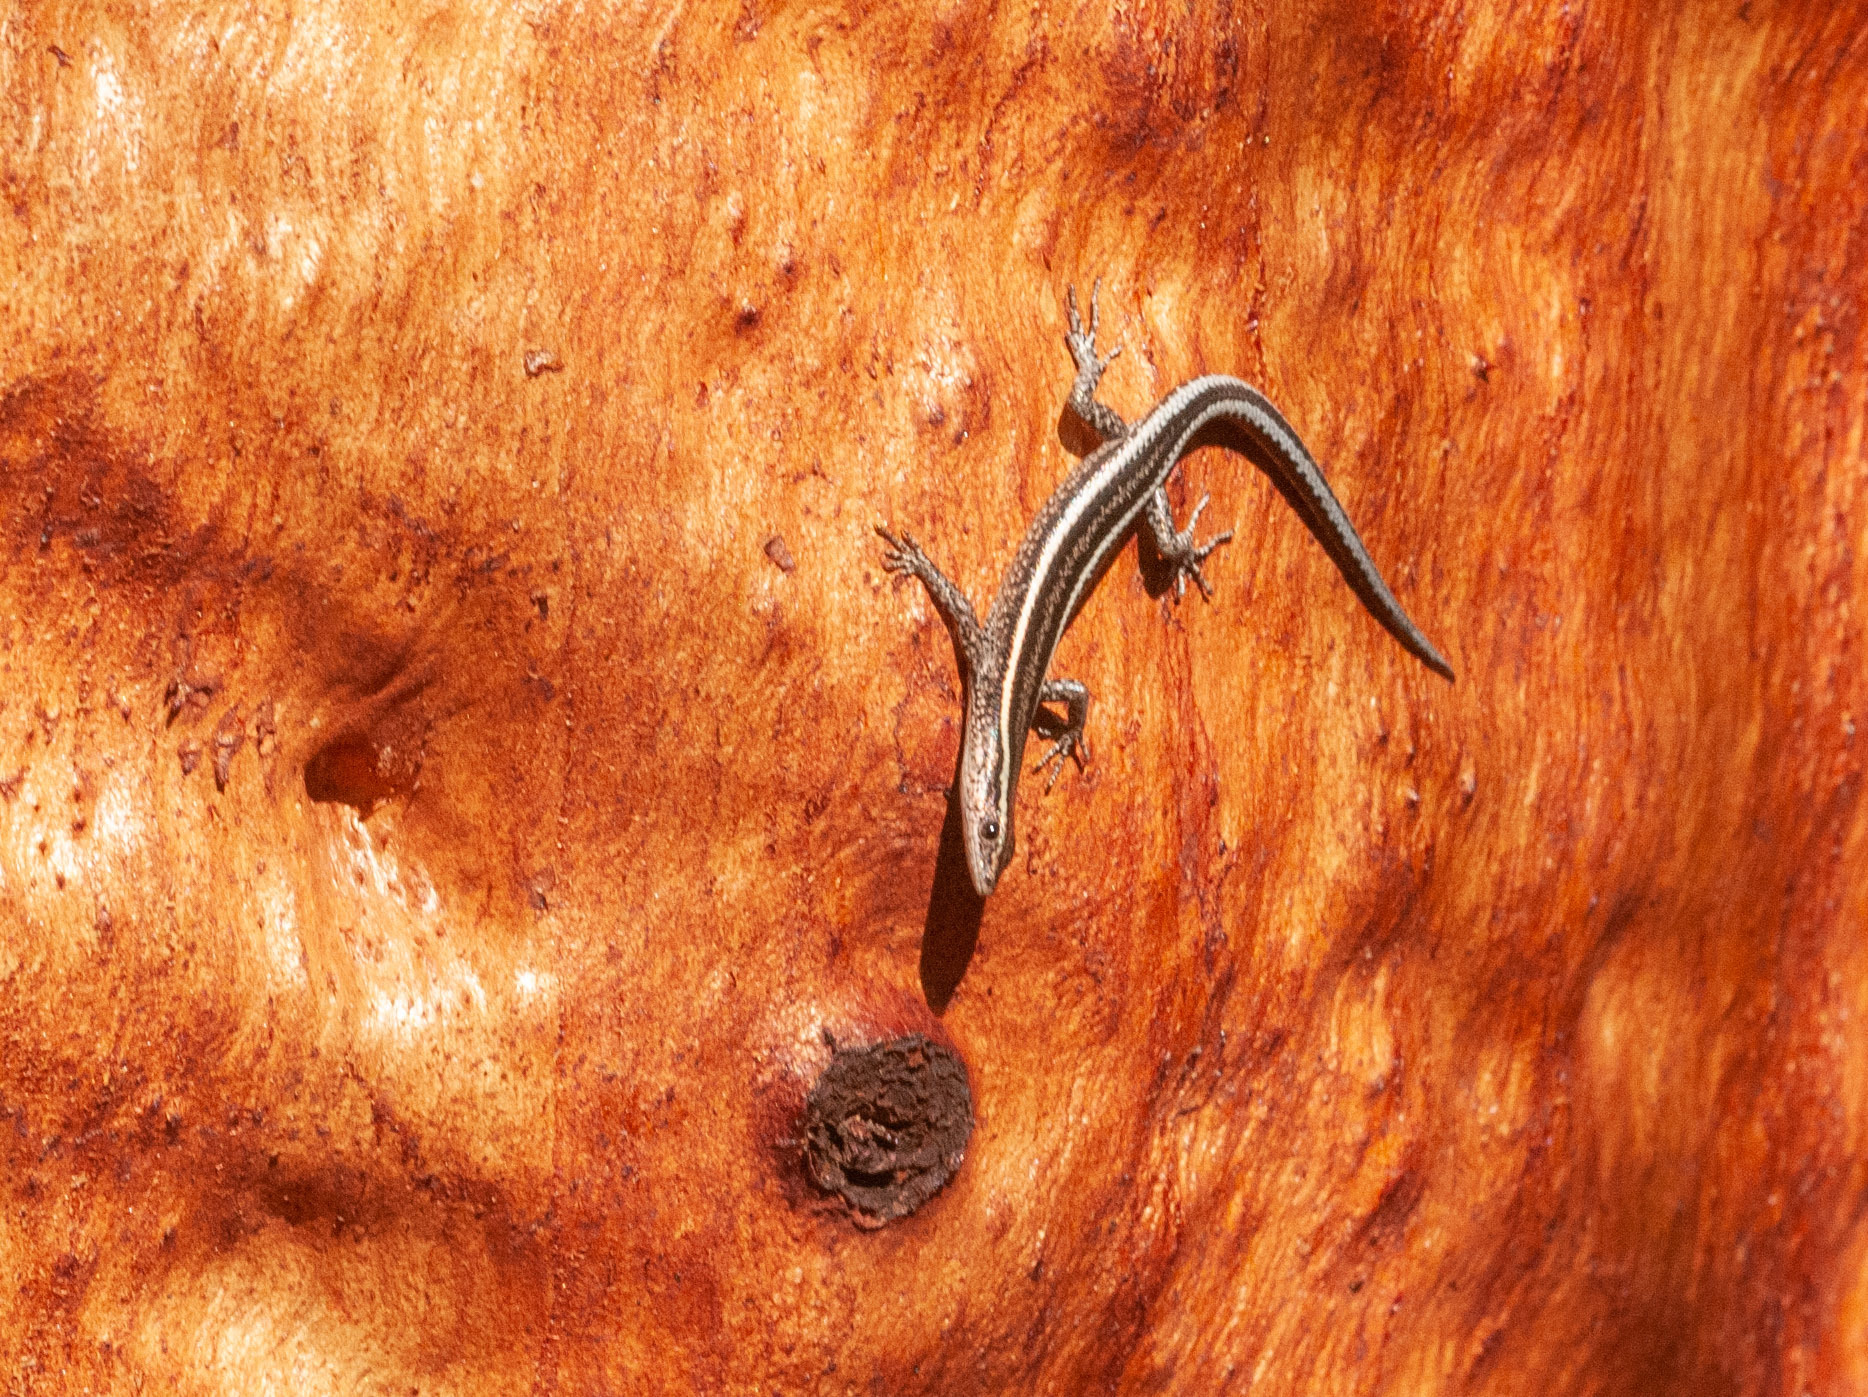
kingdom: Animalia
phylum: Chordata
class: Squamata
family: Scincidae
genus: Cryptoblepharus
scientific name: Cryptoblepharus pulcher
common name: Elegant snake-eyed skink
